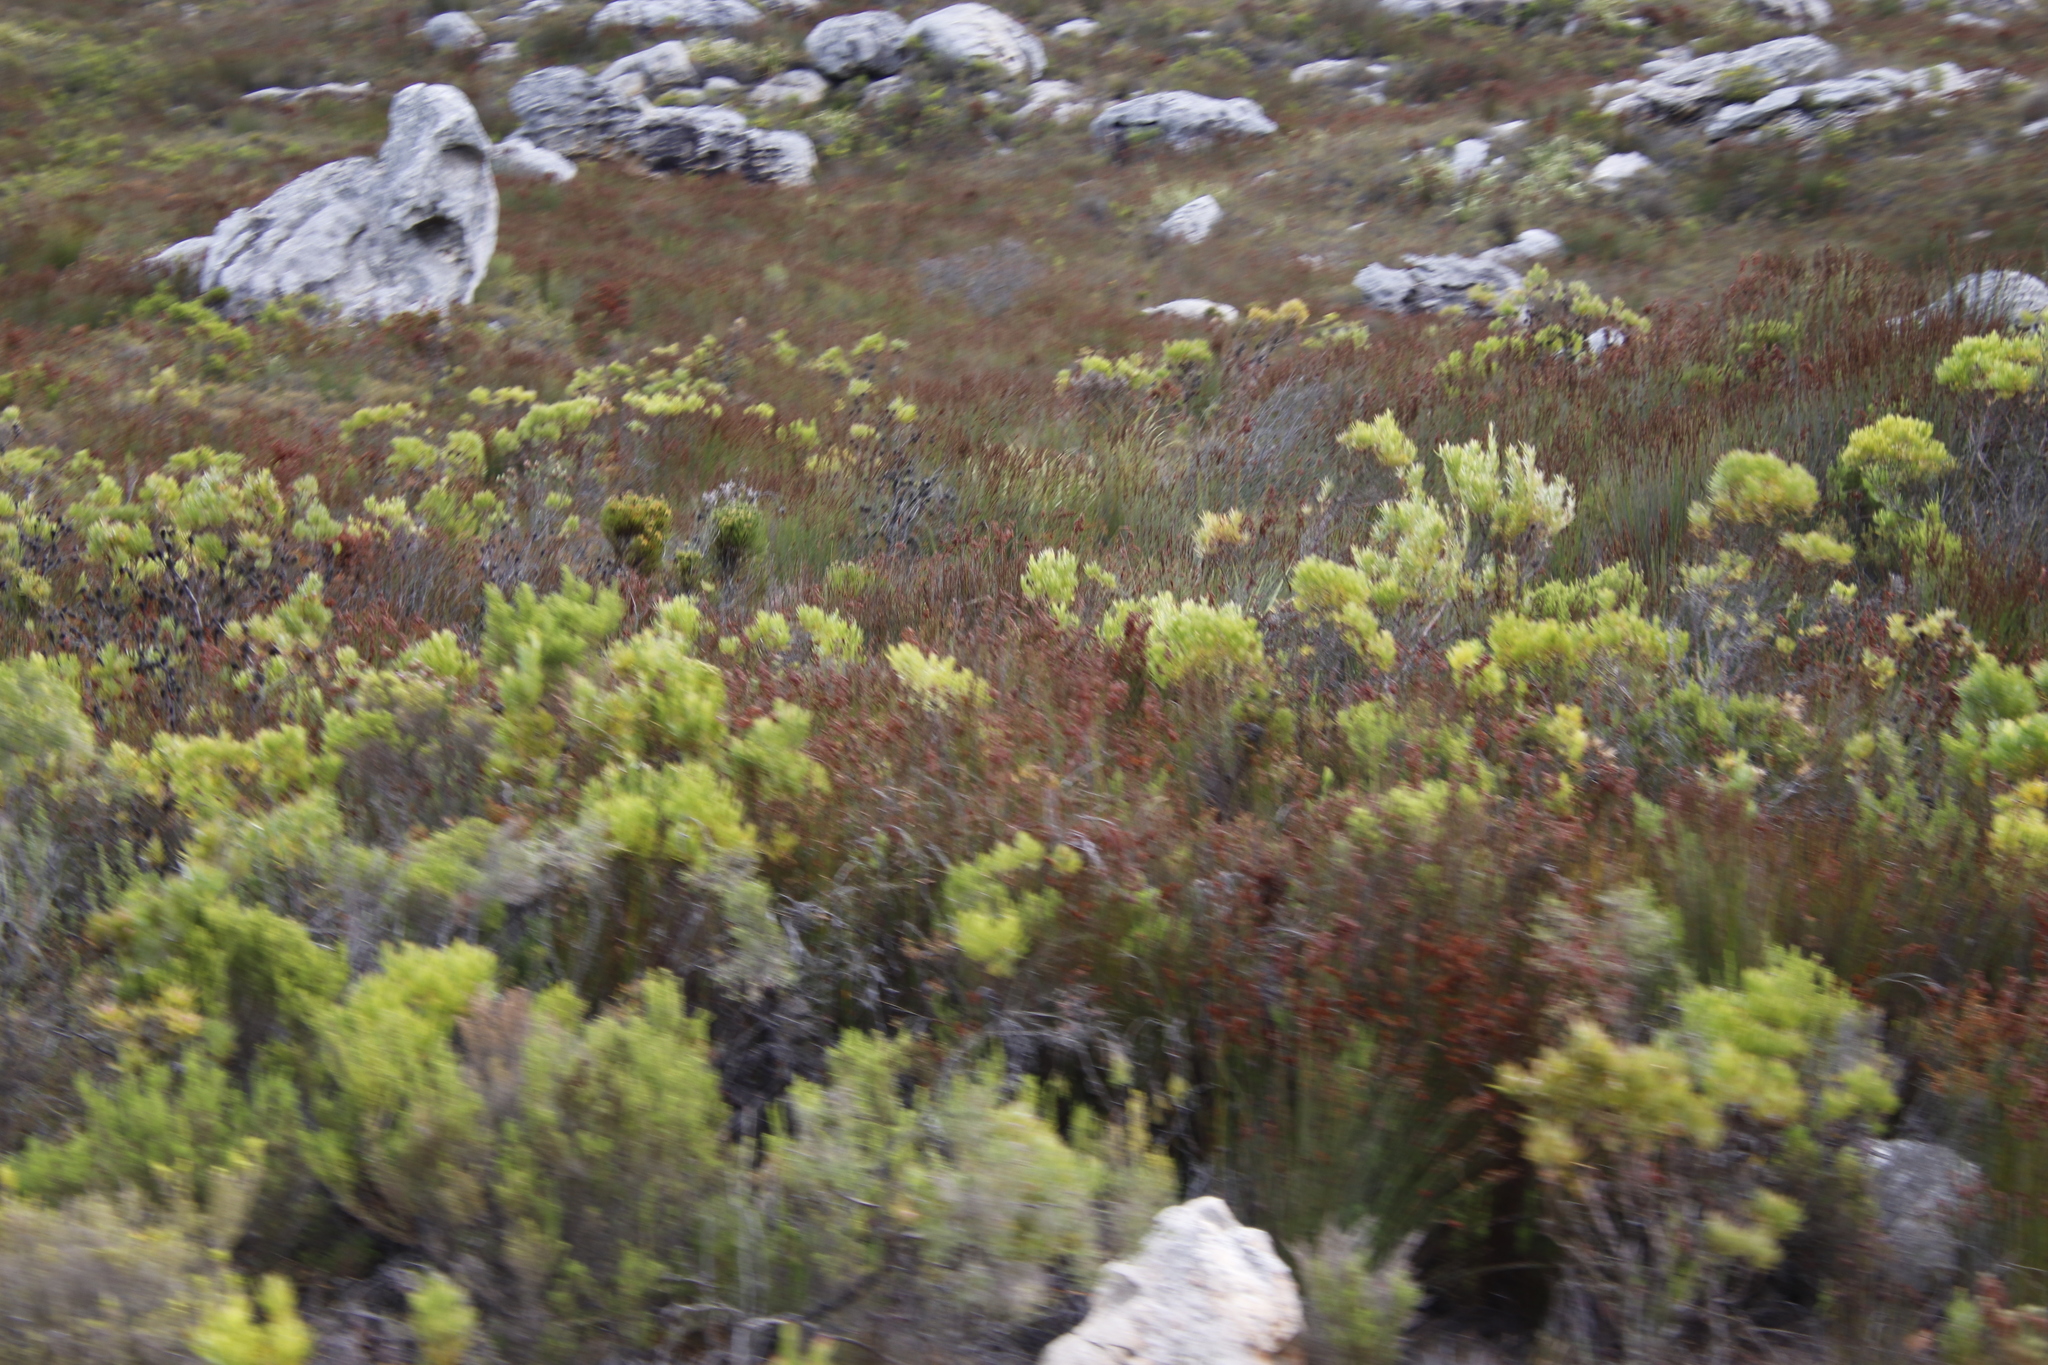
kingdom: Plantae
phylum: Tracheophyta
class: Magnoliopsida
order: Proteales
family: Proteaceae
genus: Leucadendron
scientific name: Leucadendron xanthoconus
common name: Sickle-leaf conebush
